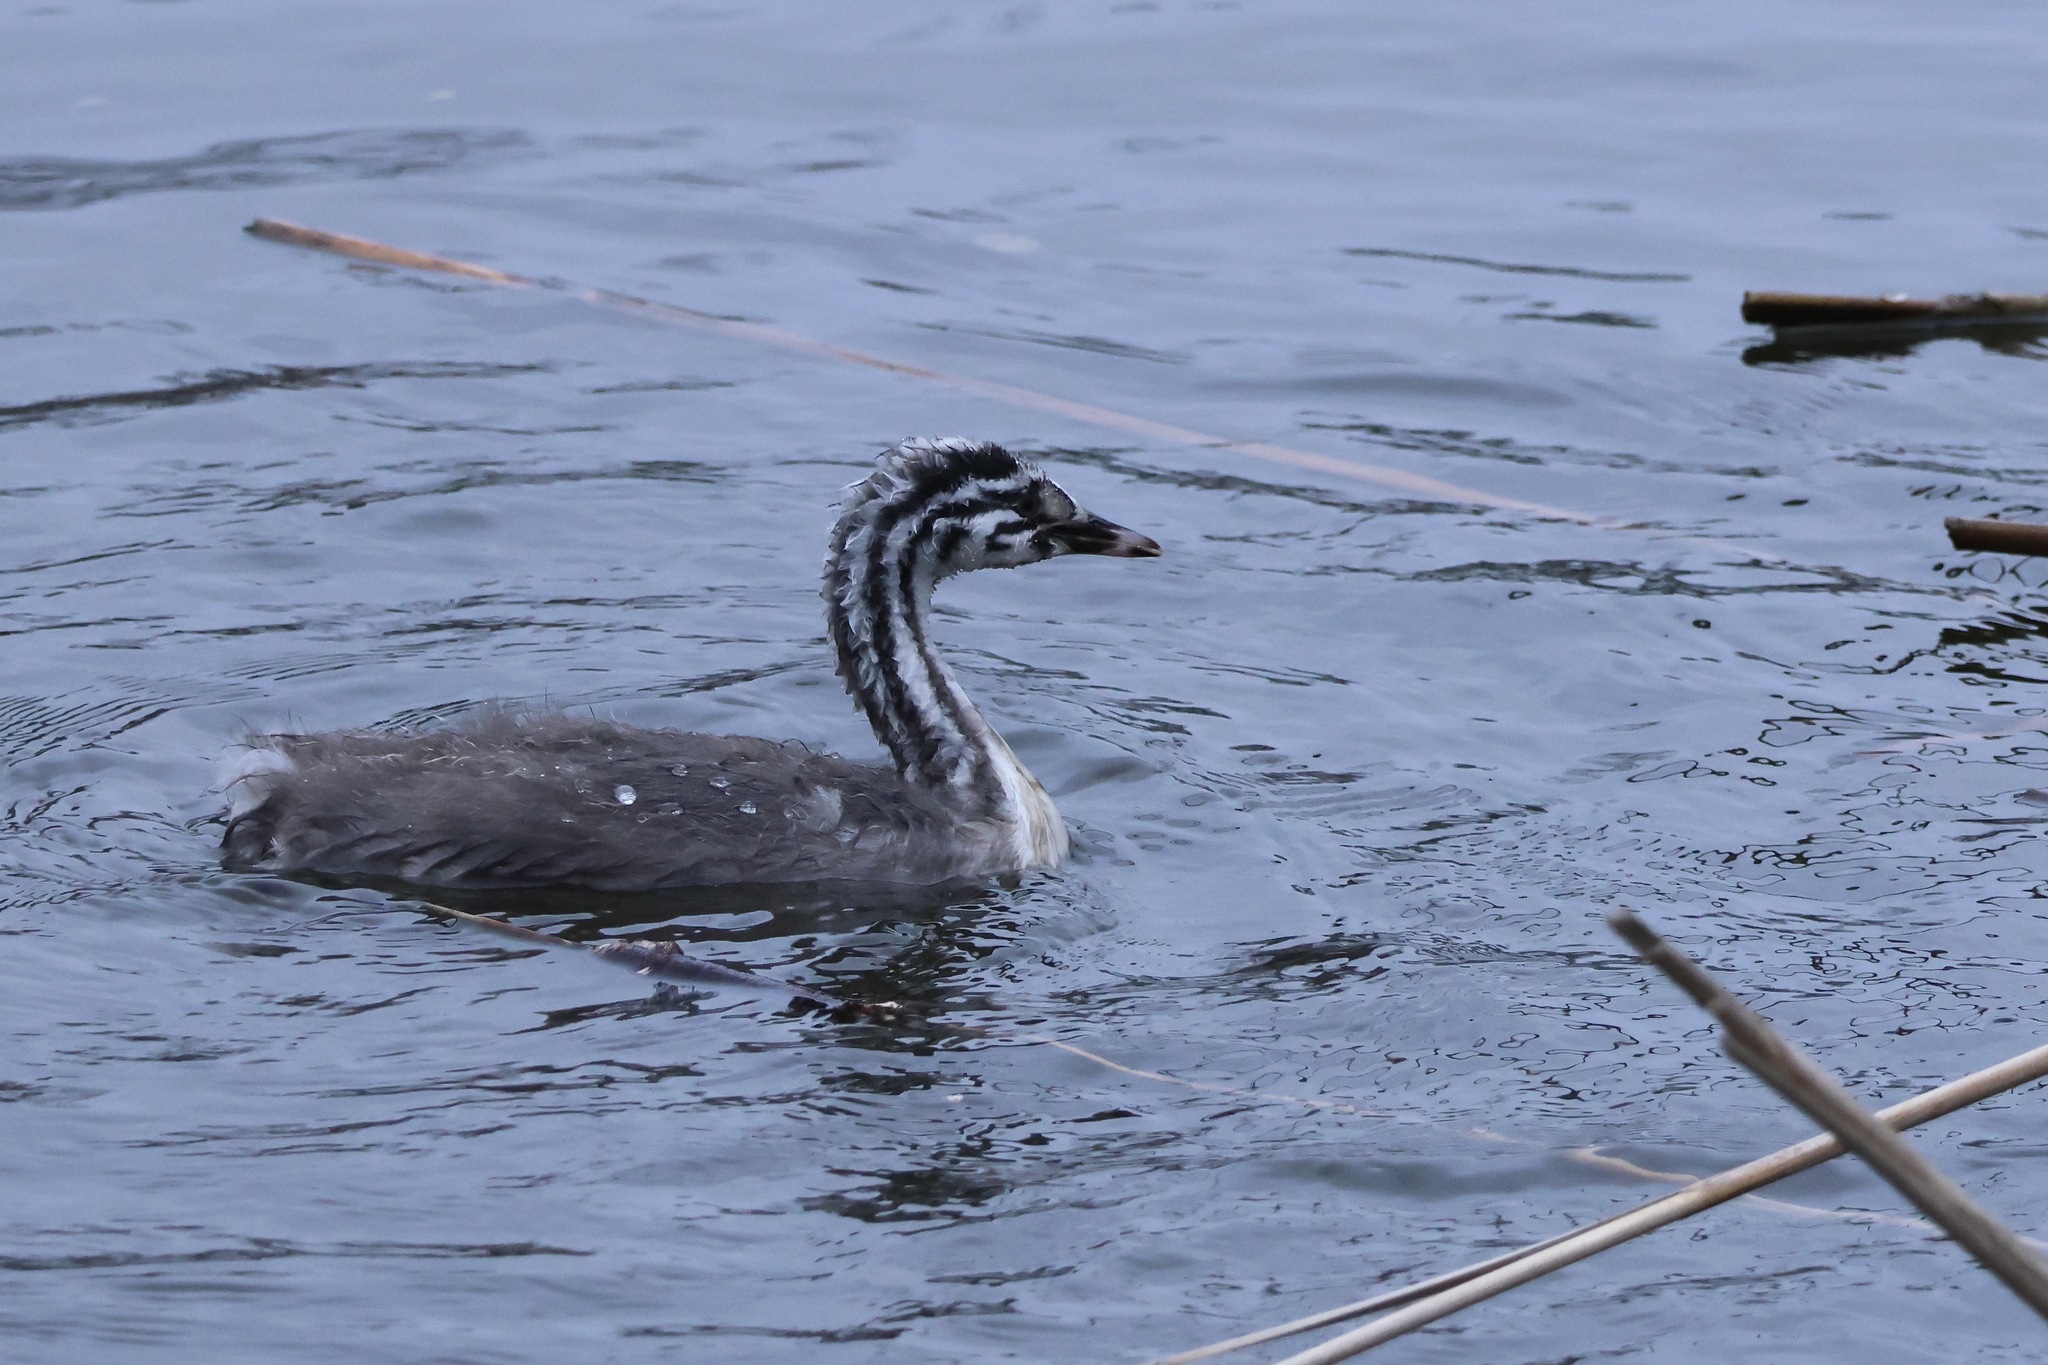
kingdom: Animalia
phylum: Chordata
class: Aves
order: Podicipediformes
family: Podicipedidae
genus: Podiceps
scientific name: Podiceps cristatus
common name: Great crested grebe
